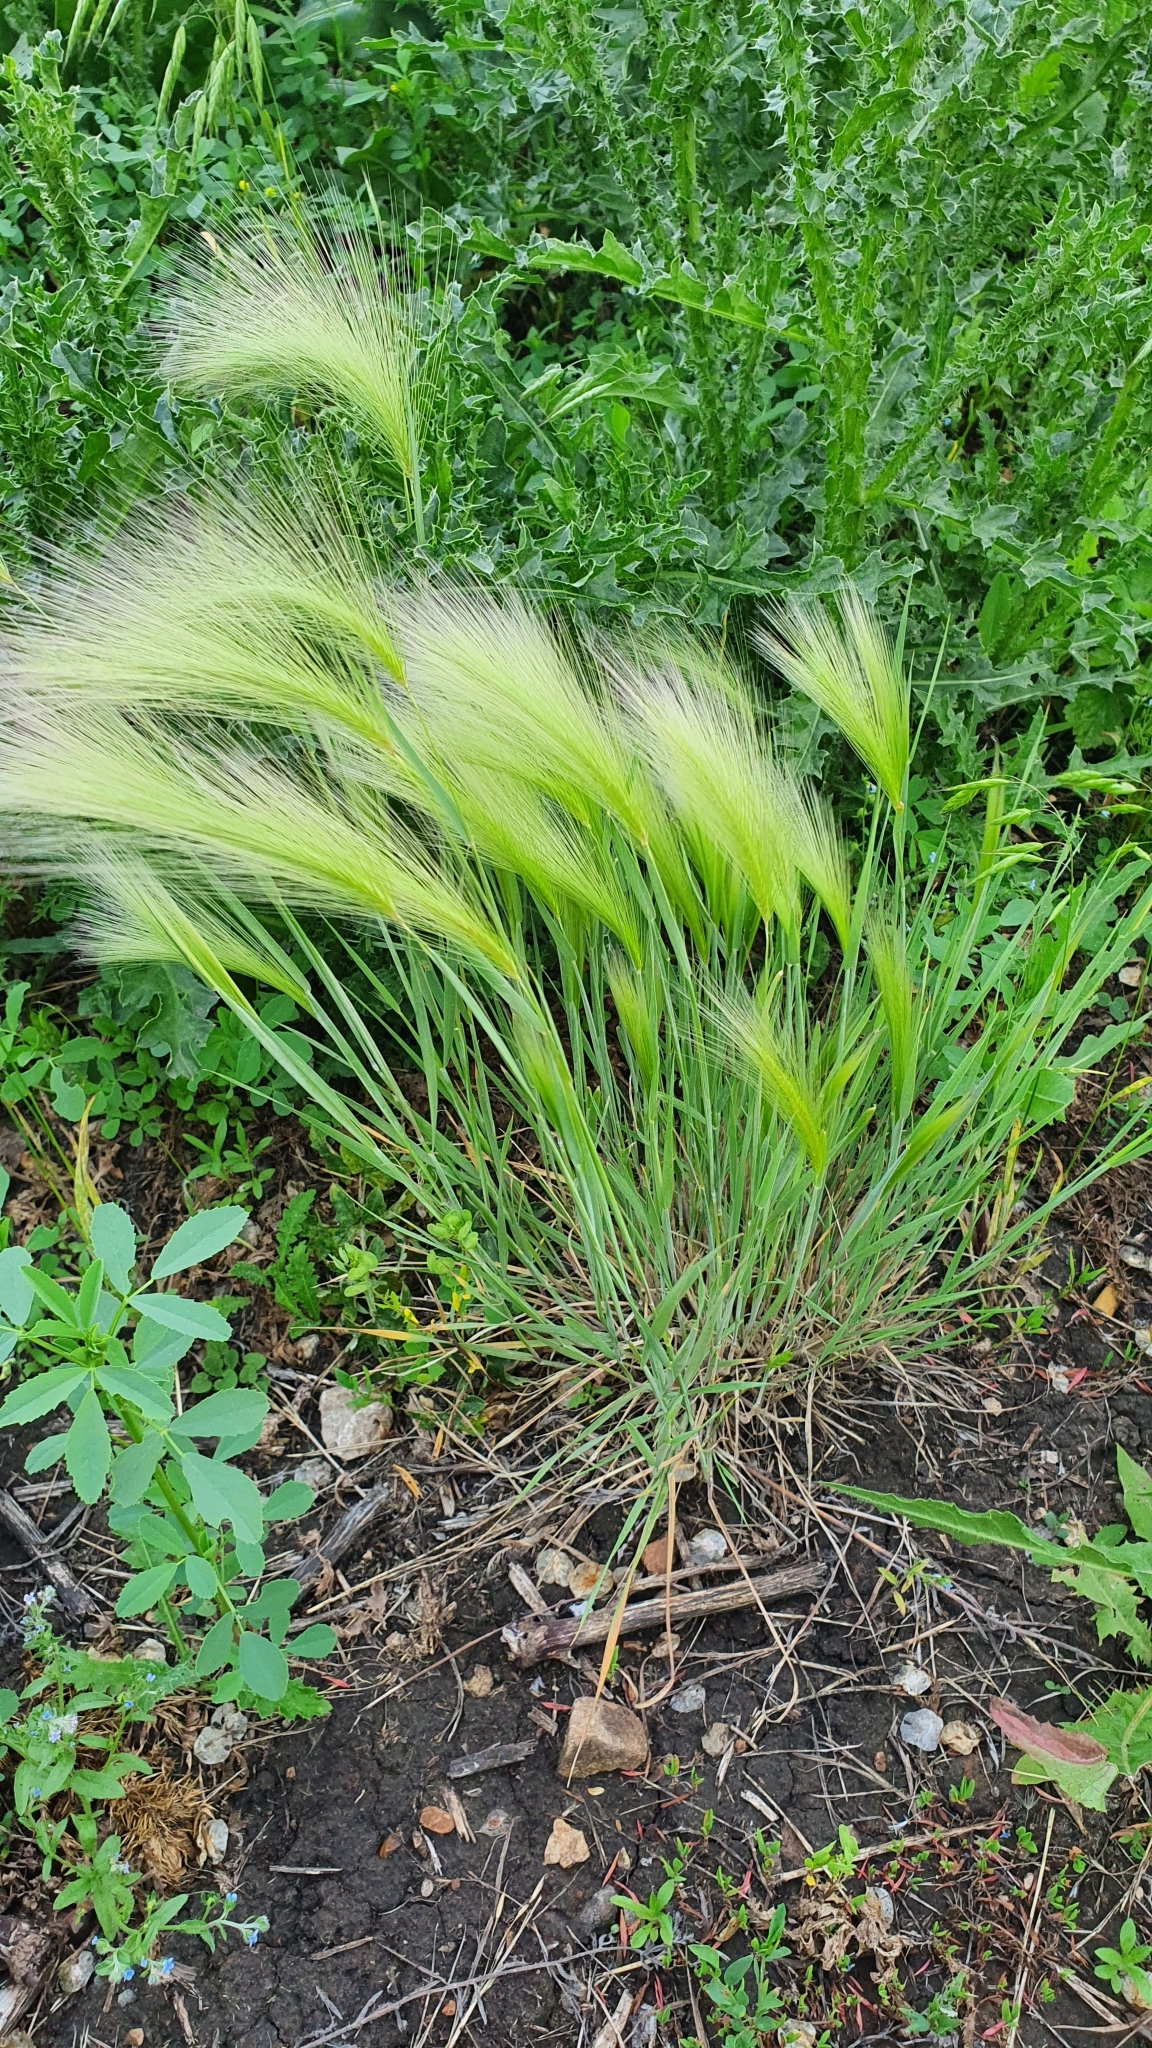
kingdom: Plantae
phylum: Tracheophyta
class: Liliopsida
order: Poales
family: Poaceae
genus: Hordeum
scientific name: Hordeum jubatum
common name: Foxtail barley
